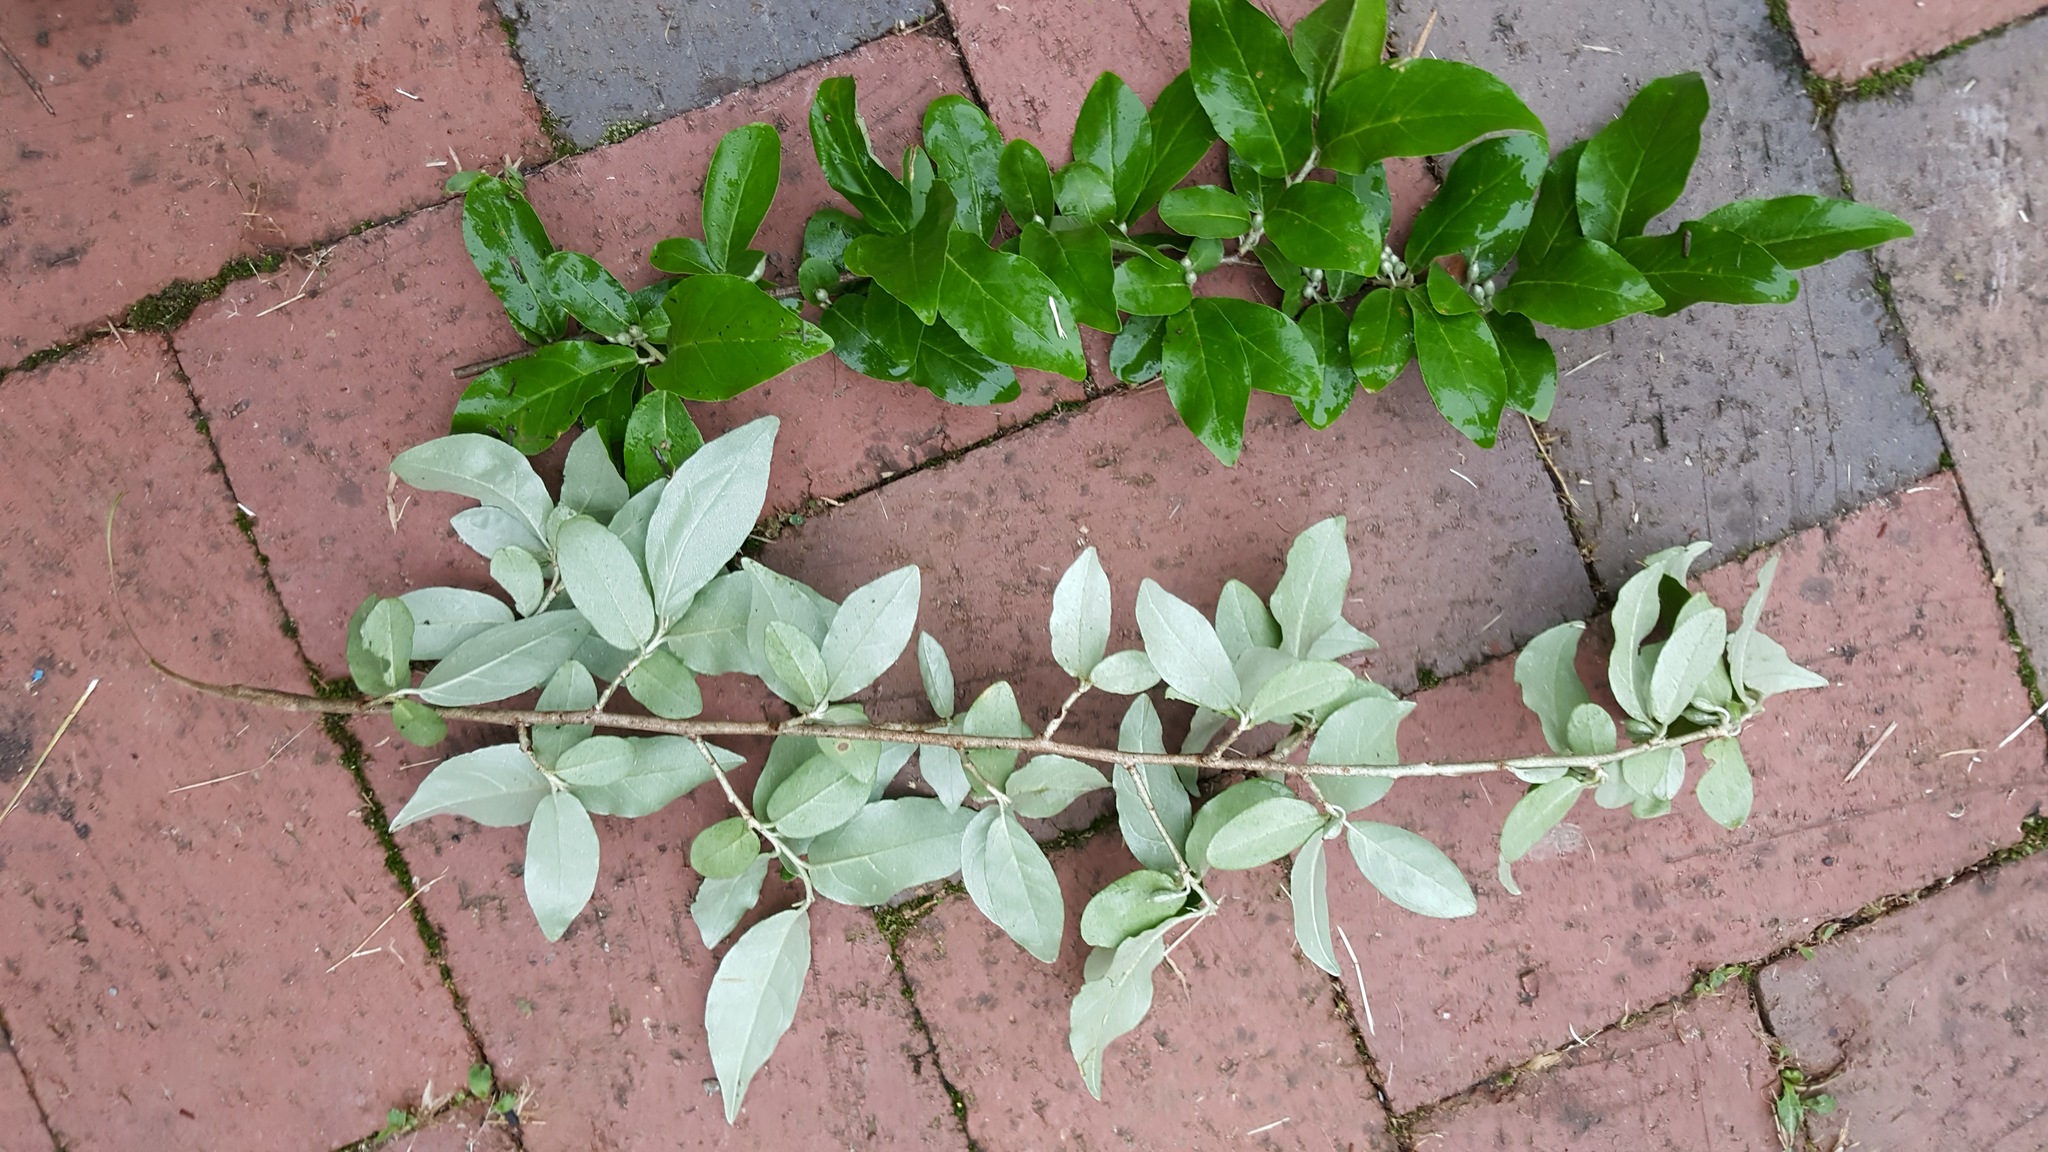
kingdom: Plantae
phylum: Tracheophyta
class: Magnoliopsida
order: Rosales
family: Elaeagnaceae
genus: Elaeagnus
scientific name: Elaeagnus umbellata
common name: Autumn olive
